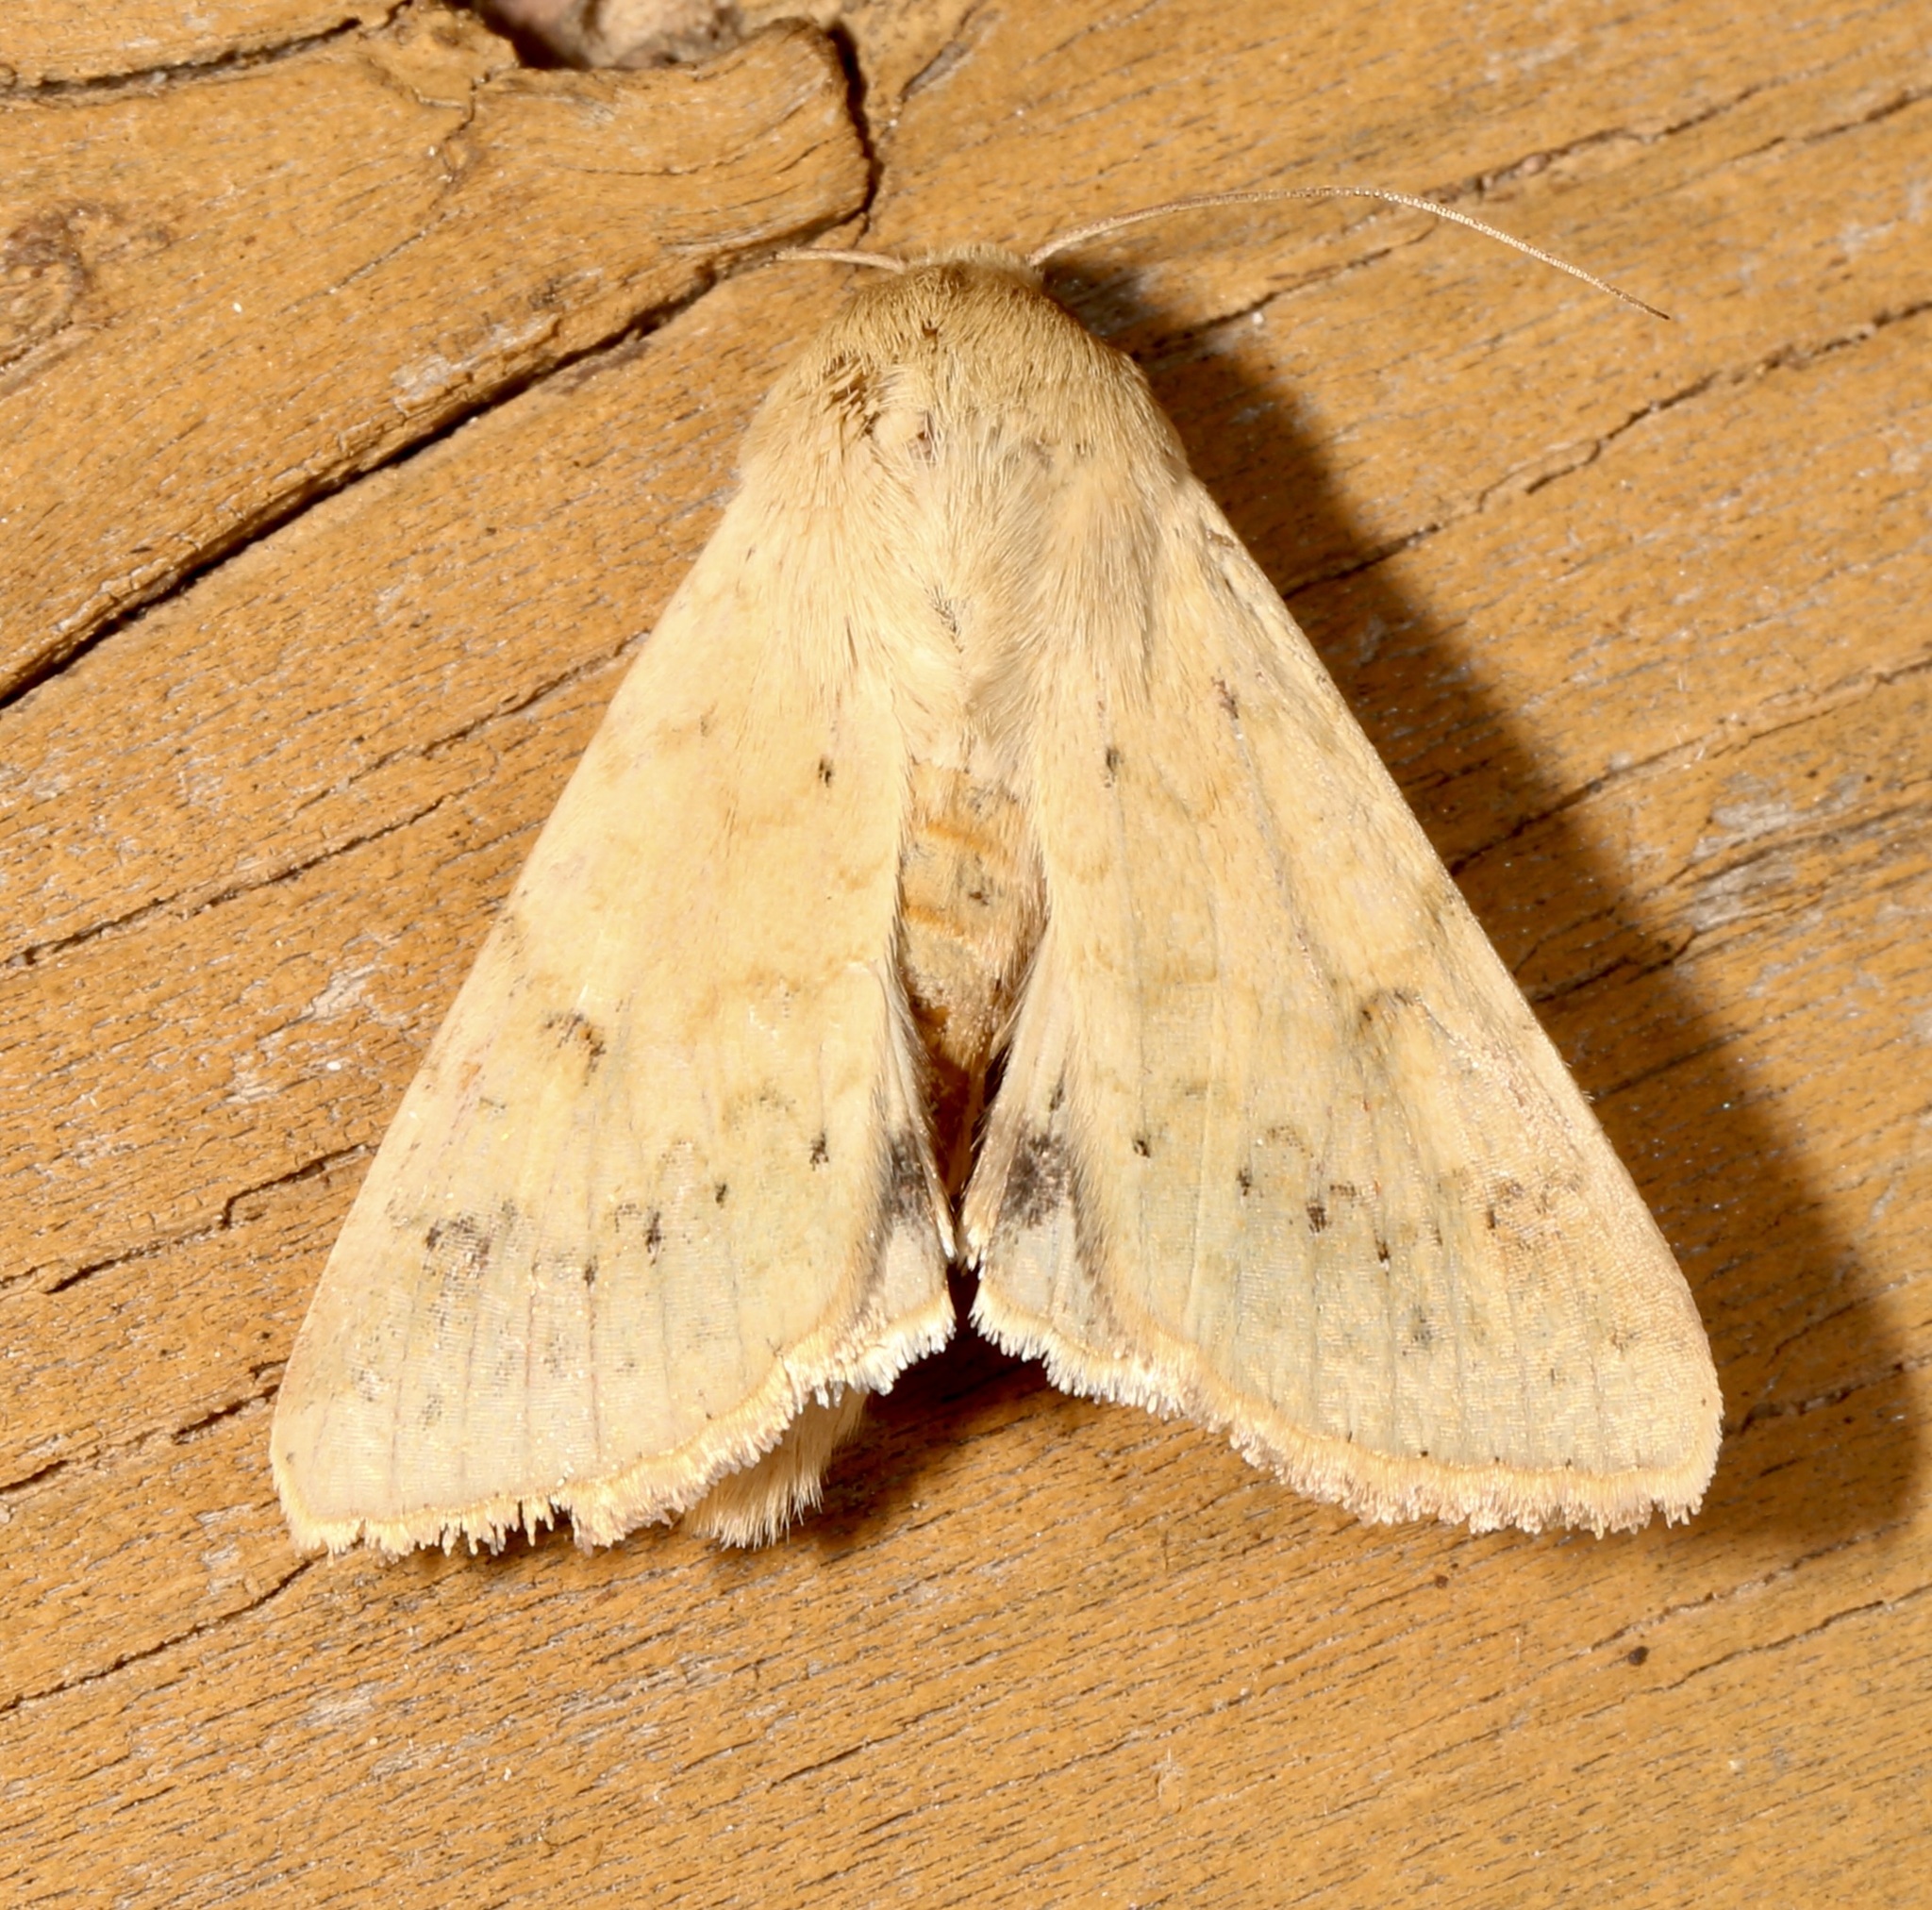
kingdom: Animalia
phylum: Arthropoda
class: Insecta
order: Lepidoptera
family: Noctuidae
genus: Helicoverpa
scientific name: Helicoverpa zea
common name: Bollworm
